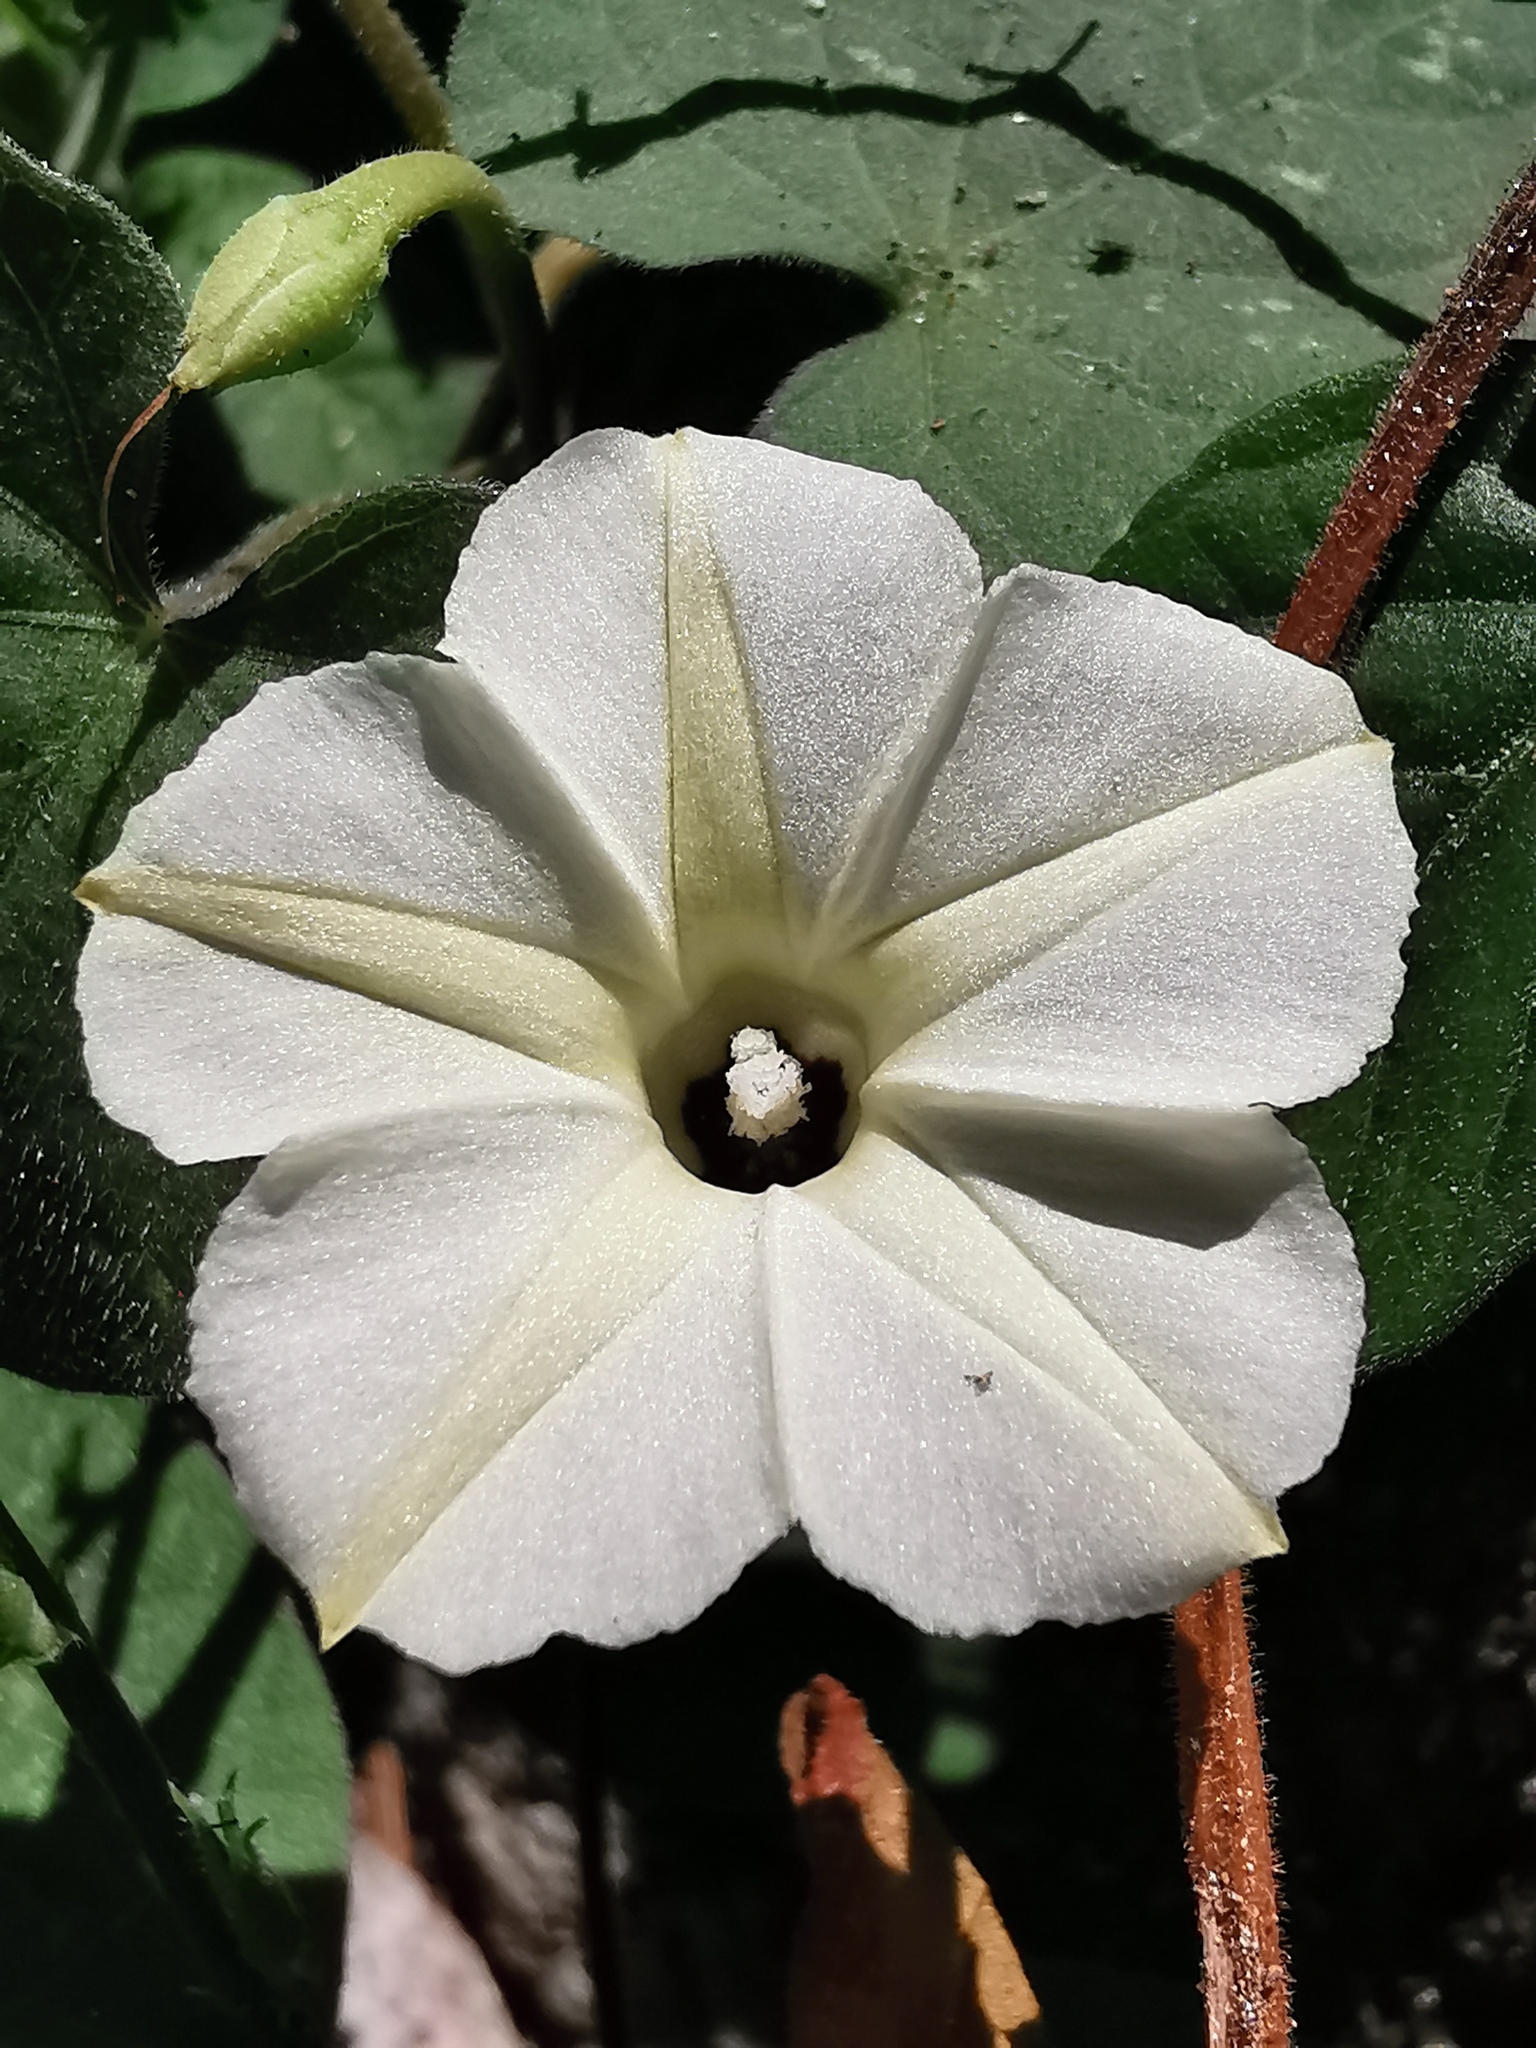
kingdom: Plantae
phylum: Tracheophyta
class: Magnoliopsida
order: Solanales
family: Convolvulaceae
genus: Ipomoea
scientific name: Ipomoea obscura
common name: Obscure morning-glory
